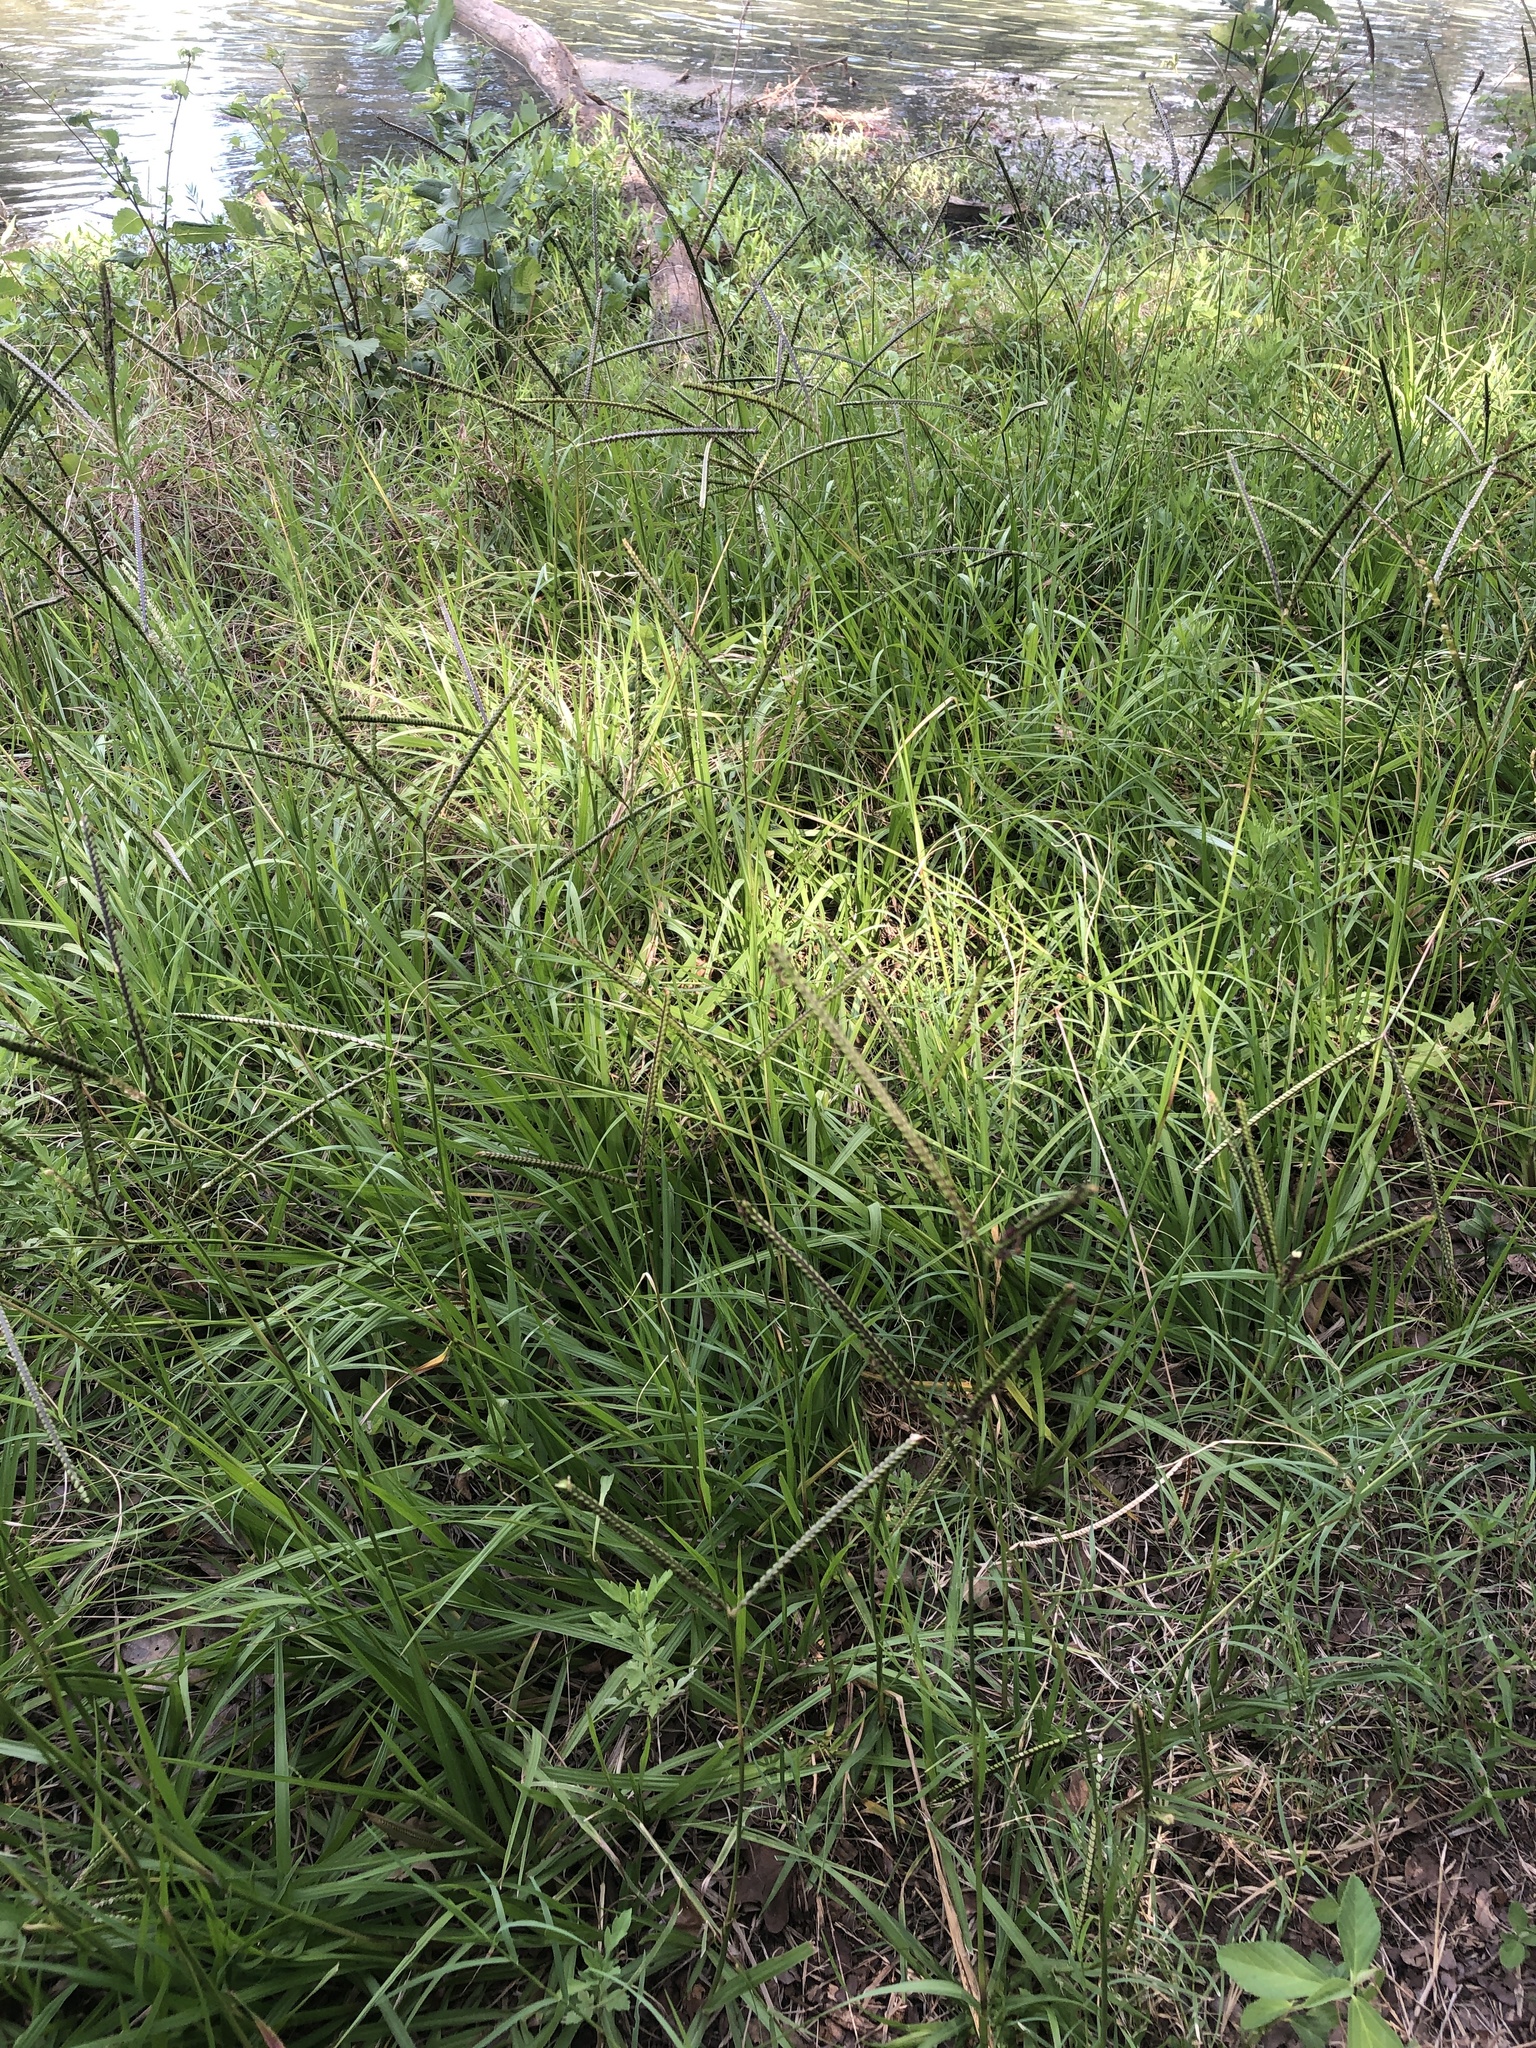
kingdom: Plantae
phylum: Tracheophyta
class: Liliopsida
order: Poales
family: Poaceae
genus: Paspalum
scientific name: Paspalum notatum
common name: Bahiagrass
